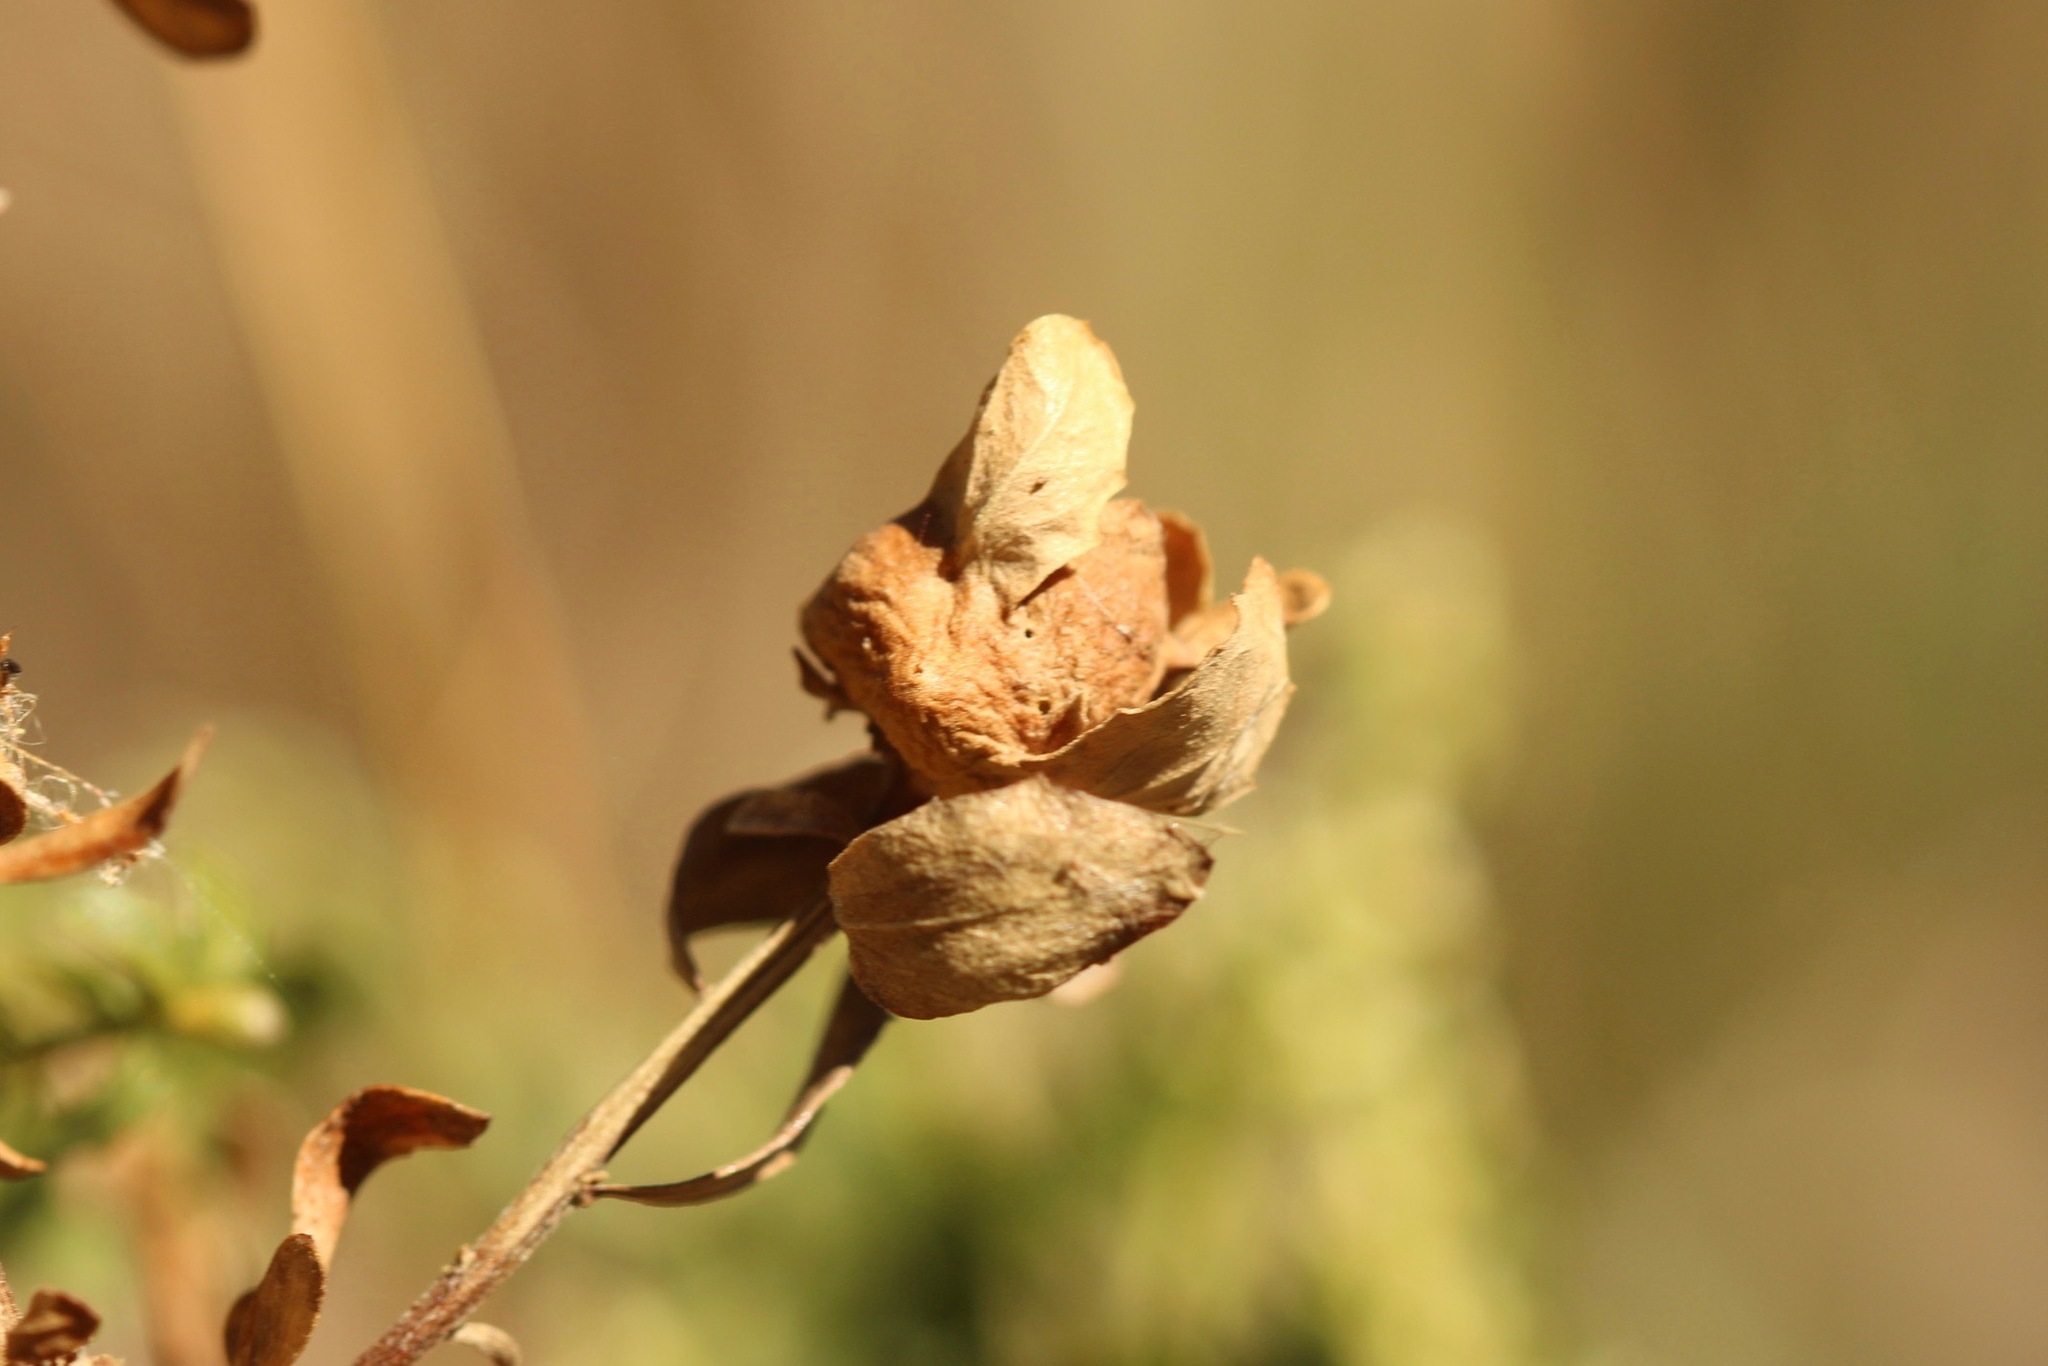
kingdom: Animalia
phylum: Arthropoda
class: Insecta
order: Diptera
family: Cecidomyiidae
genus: Rhopalomyia
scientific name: Rhopalomyia californica
